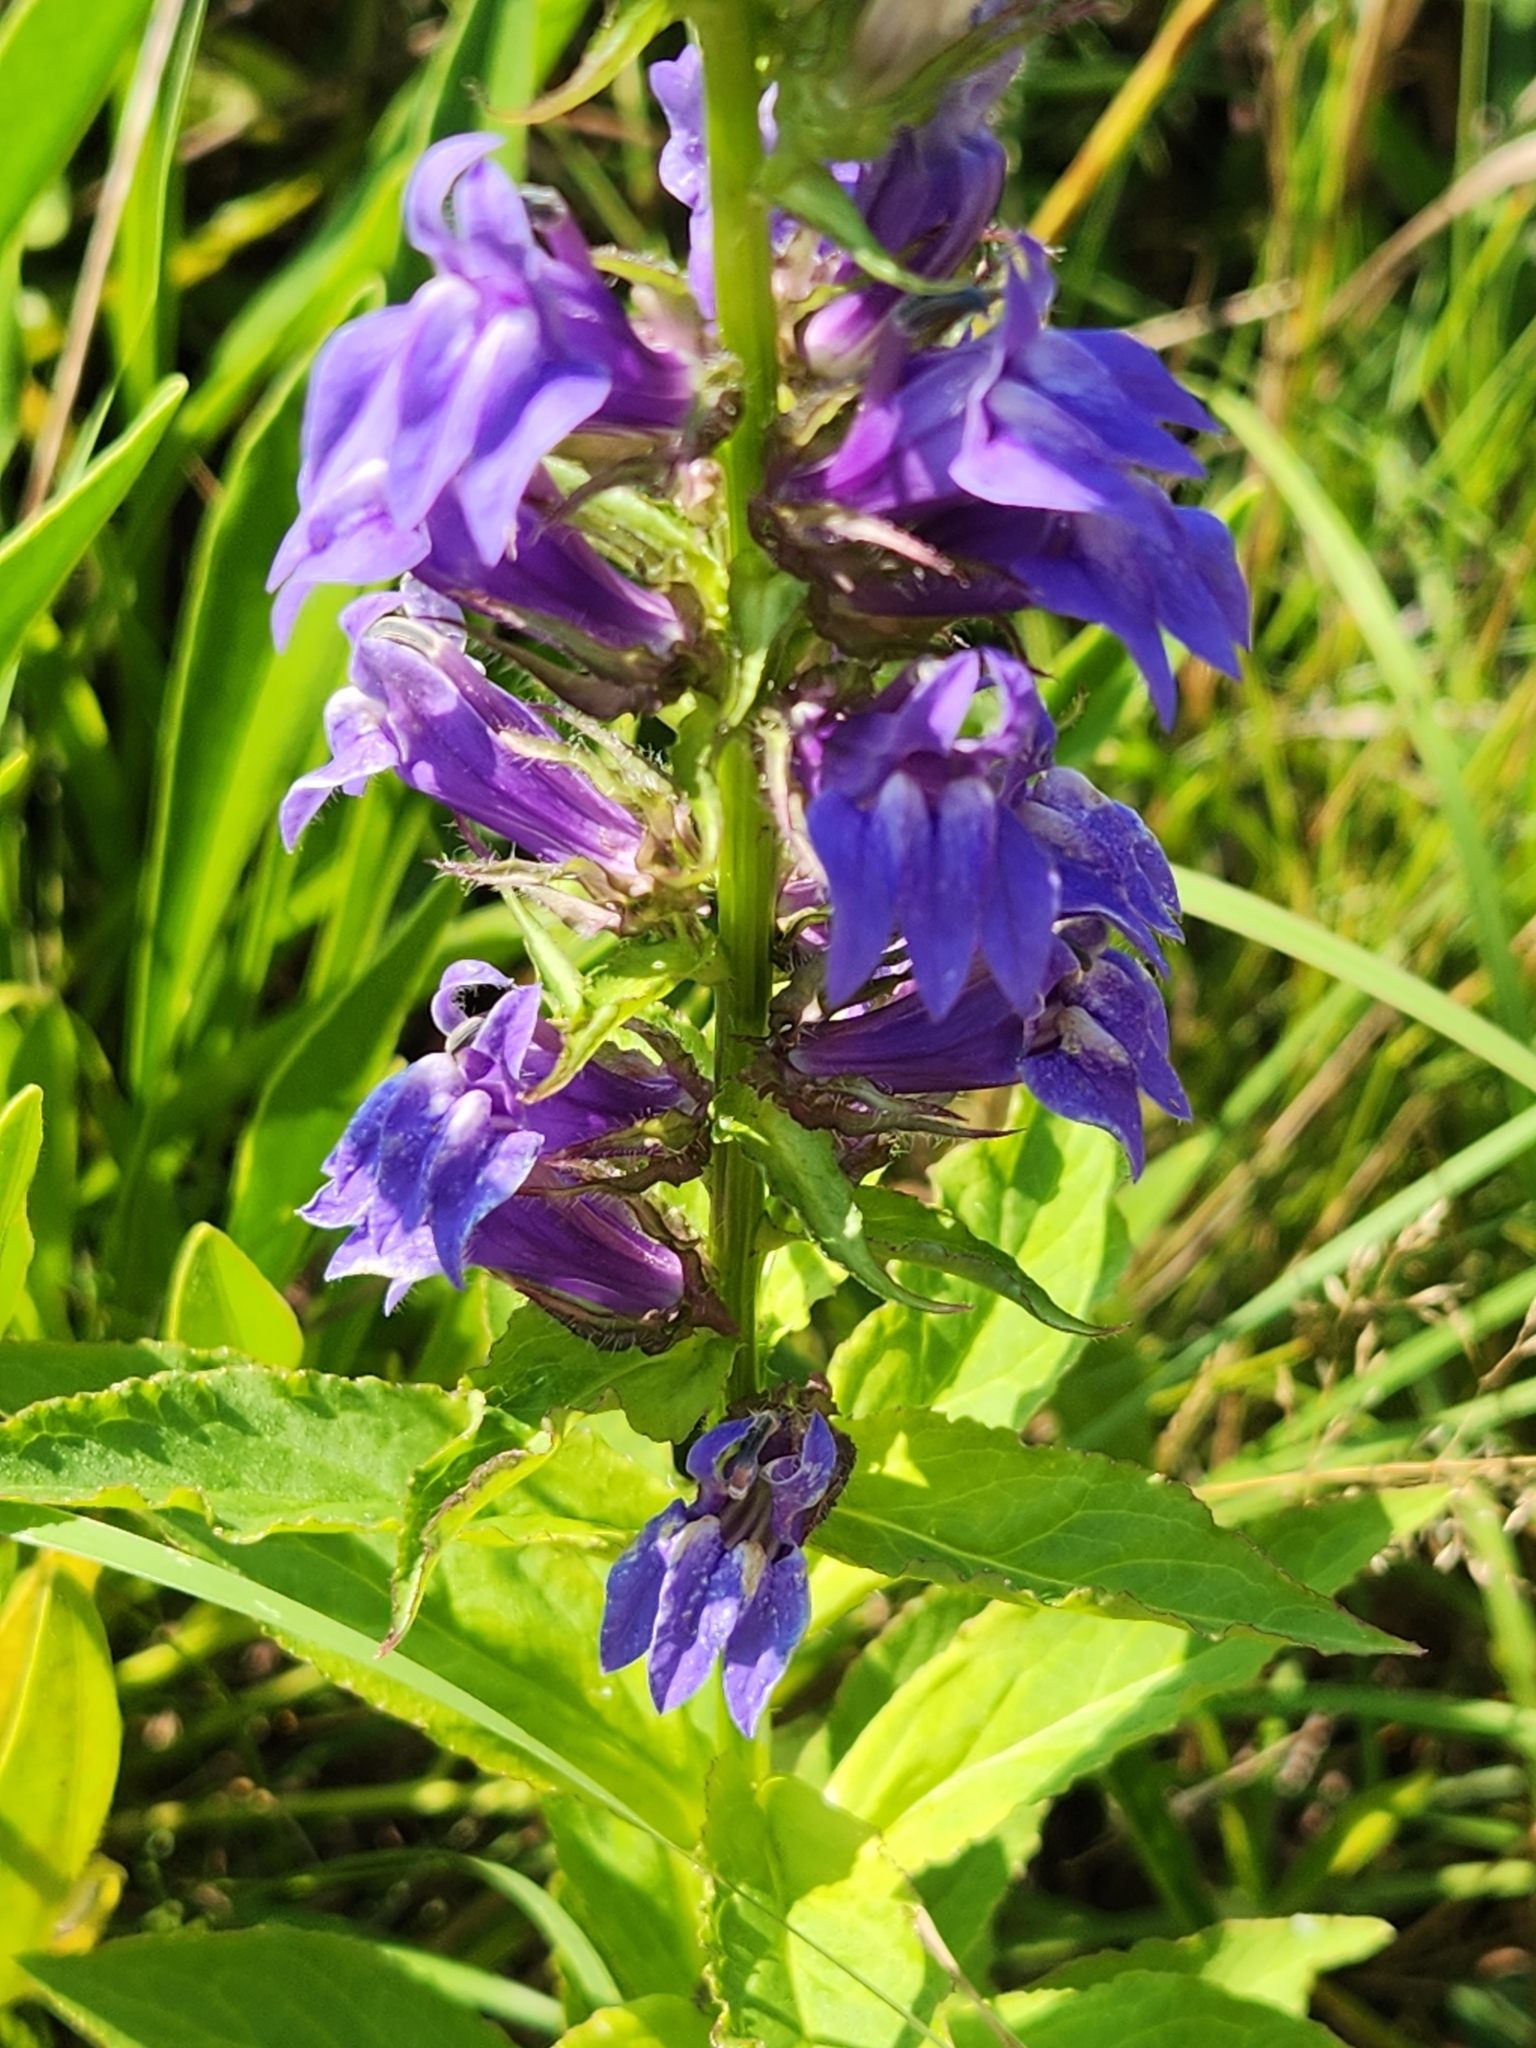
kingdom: Plantae
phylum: Tracheophyta
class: Magnoliopsida
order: Asterales
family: Campanulaceae
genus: Lobelia
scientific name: Lobelia siphilitica
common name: Great lobelia
